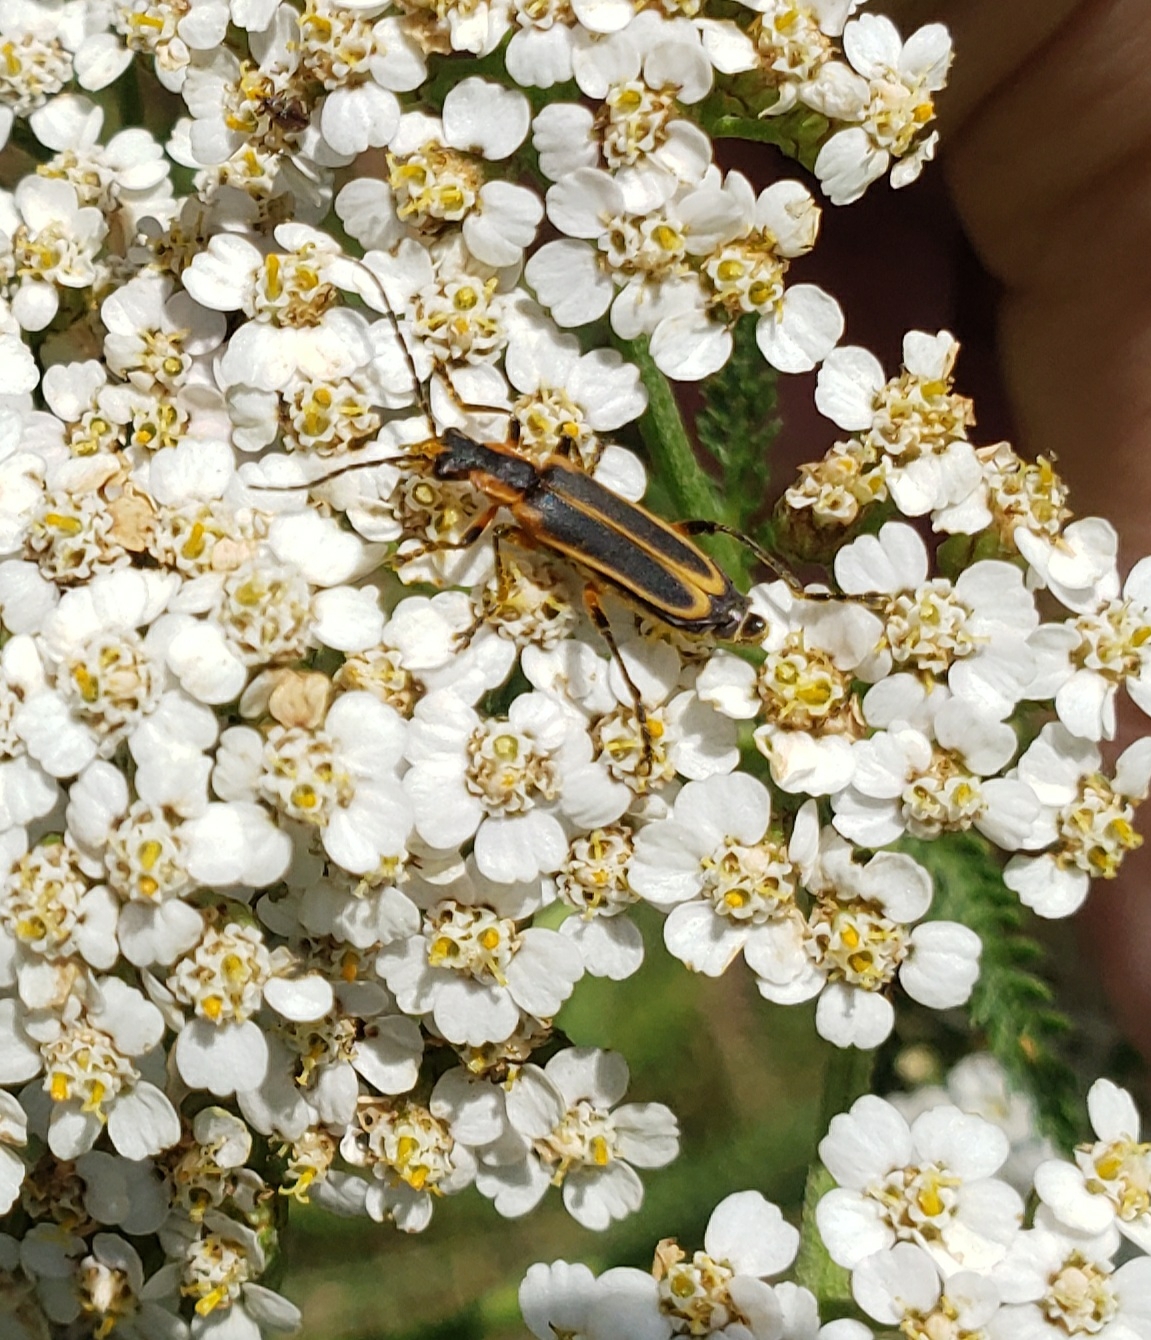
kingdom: Animalia
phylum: Arthropoda
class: Insecta
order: Coleoptera
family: Cantharidae
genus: Chauliognathus
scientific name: Chauliognathus marginatus
